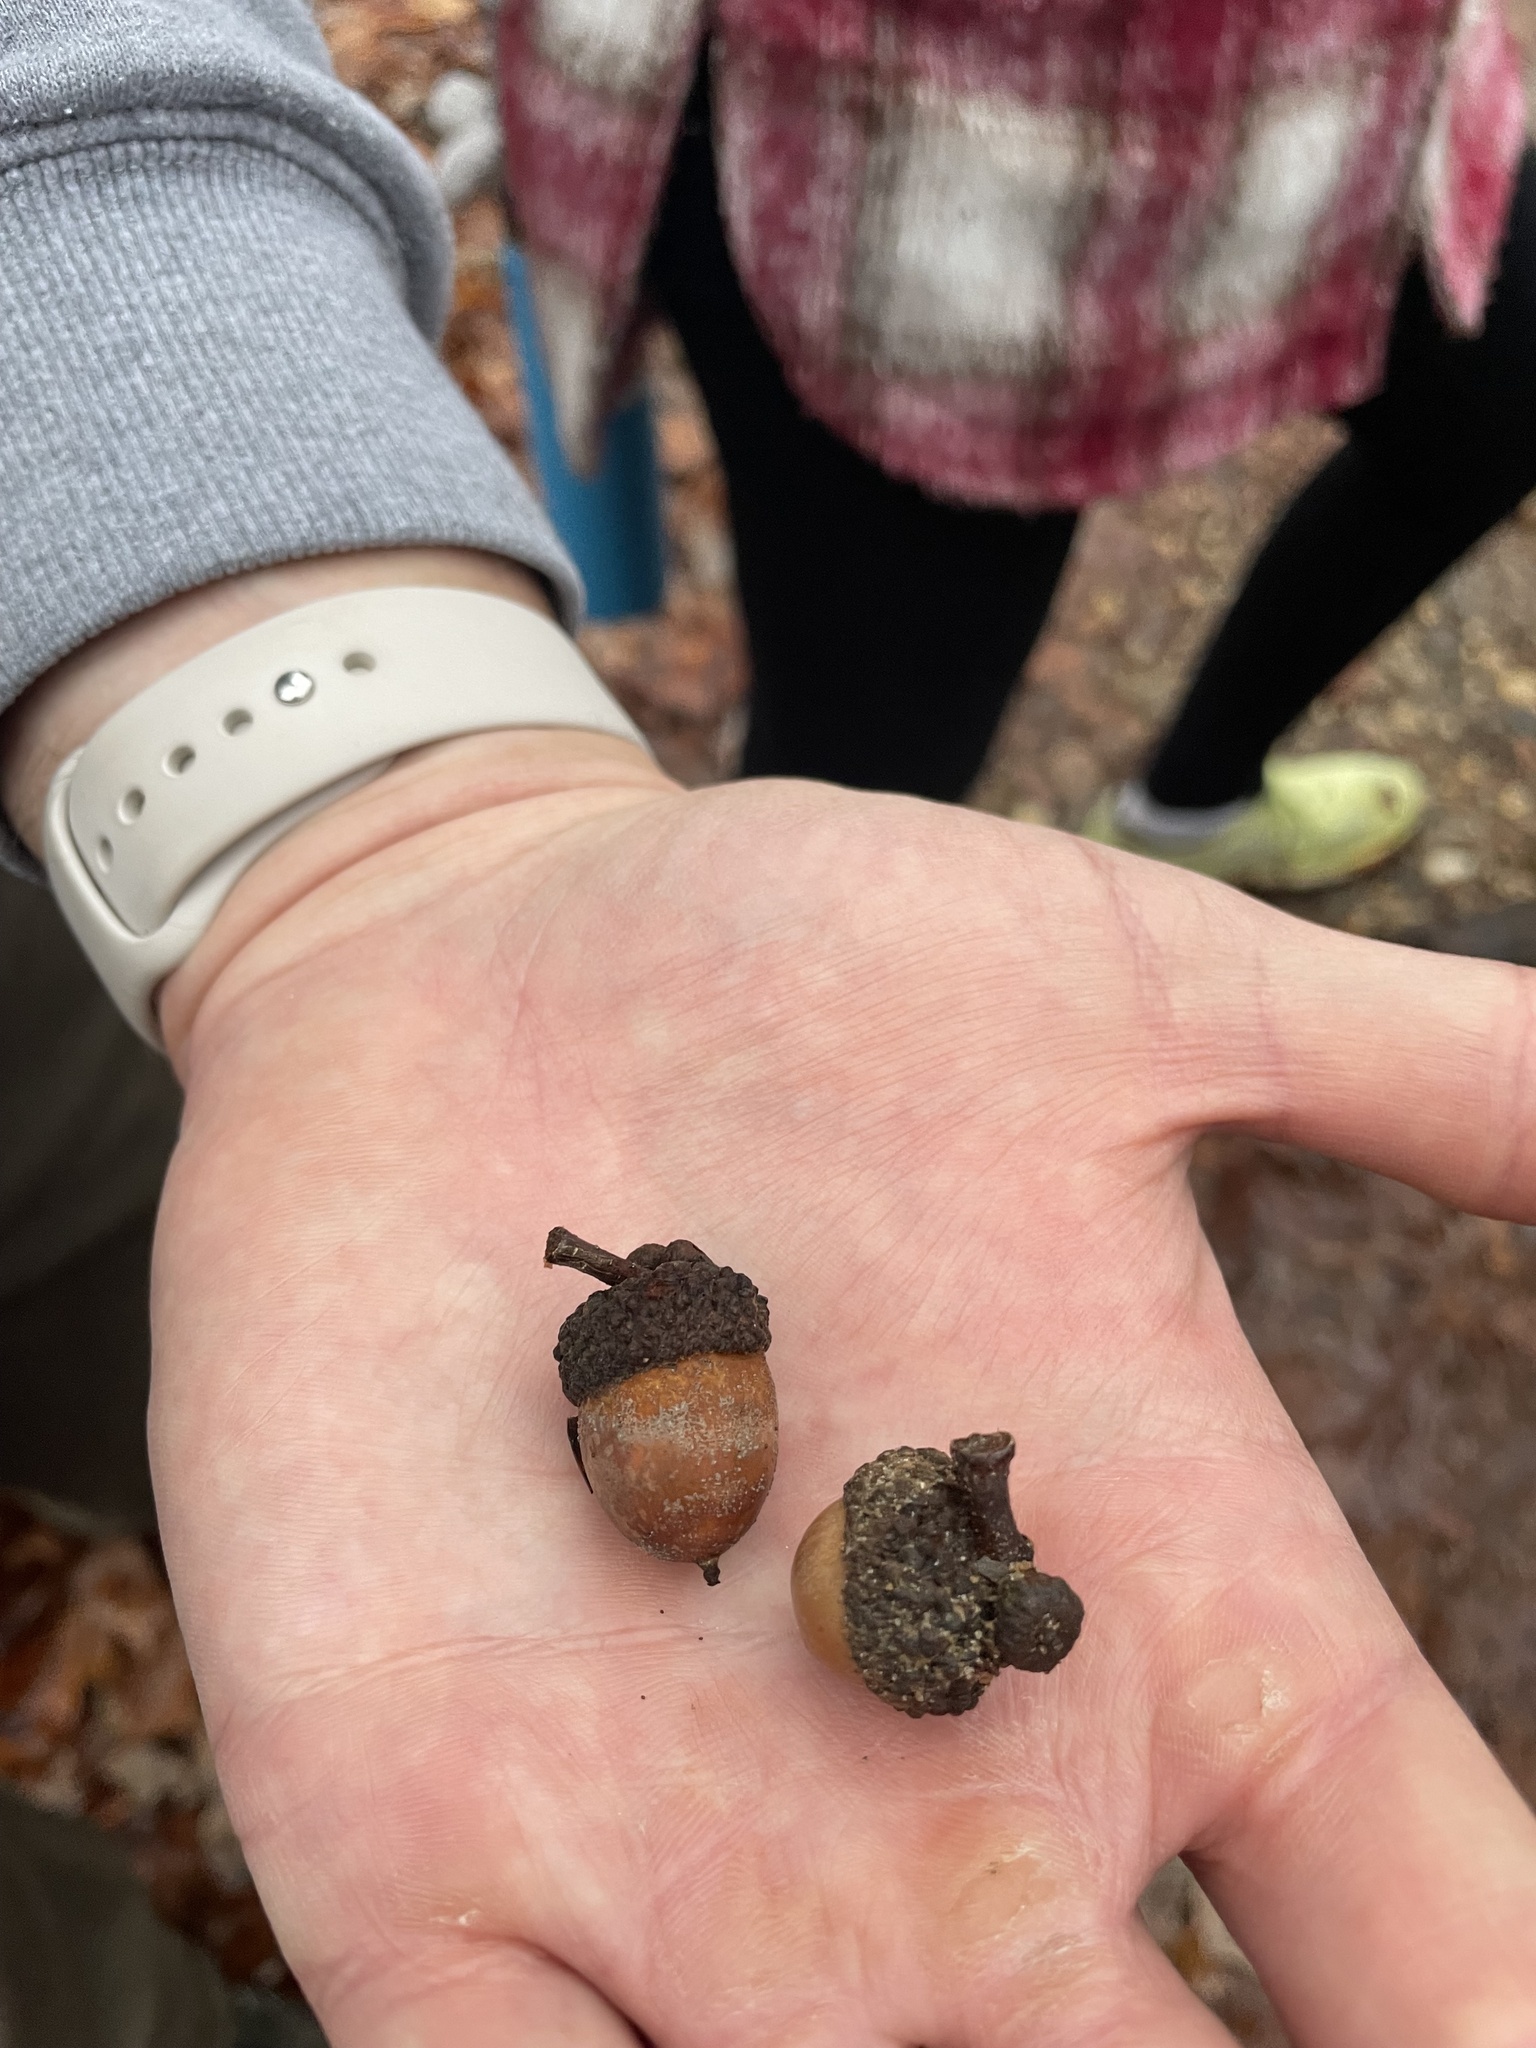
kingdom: Plantae
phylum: Tracheophyta
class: Magnoliopsida
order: Fagales
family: Fagaceae
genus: Quercus
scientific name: Quercus stellata
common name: Post oak
